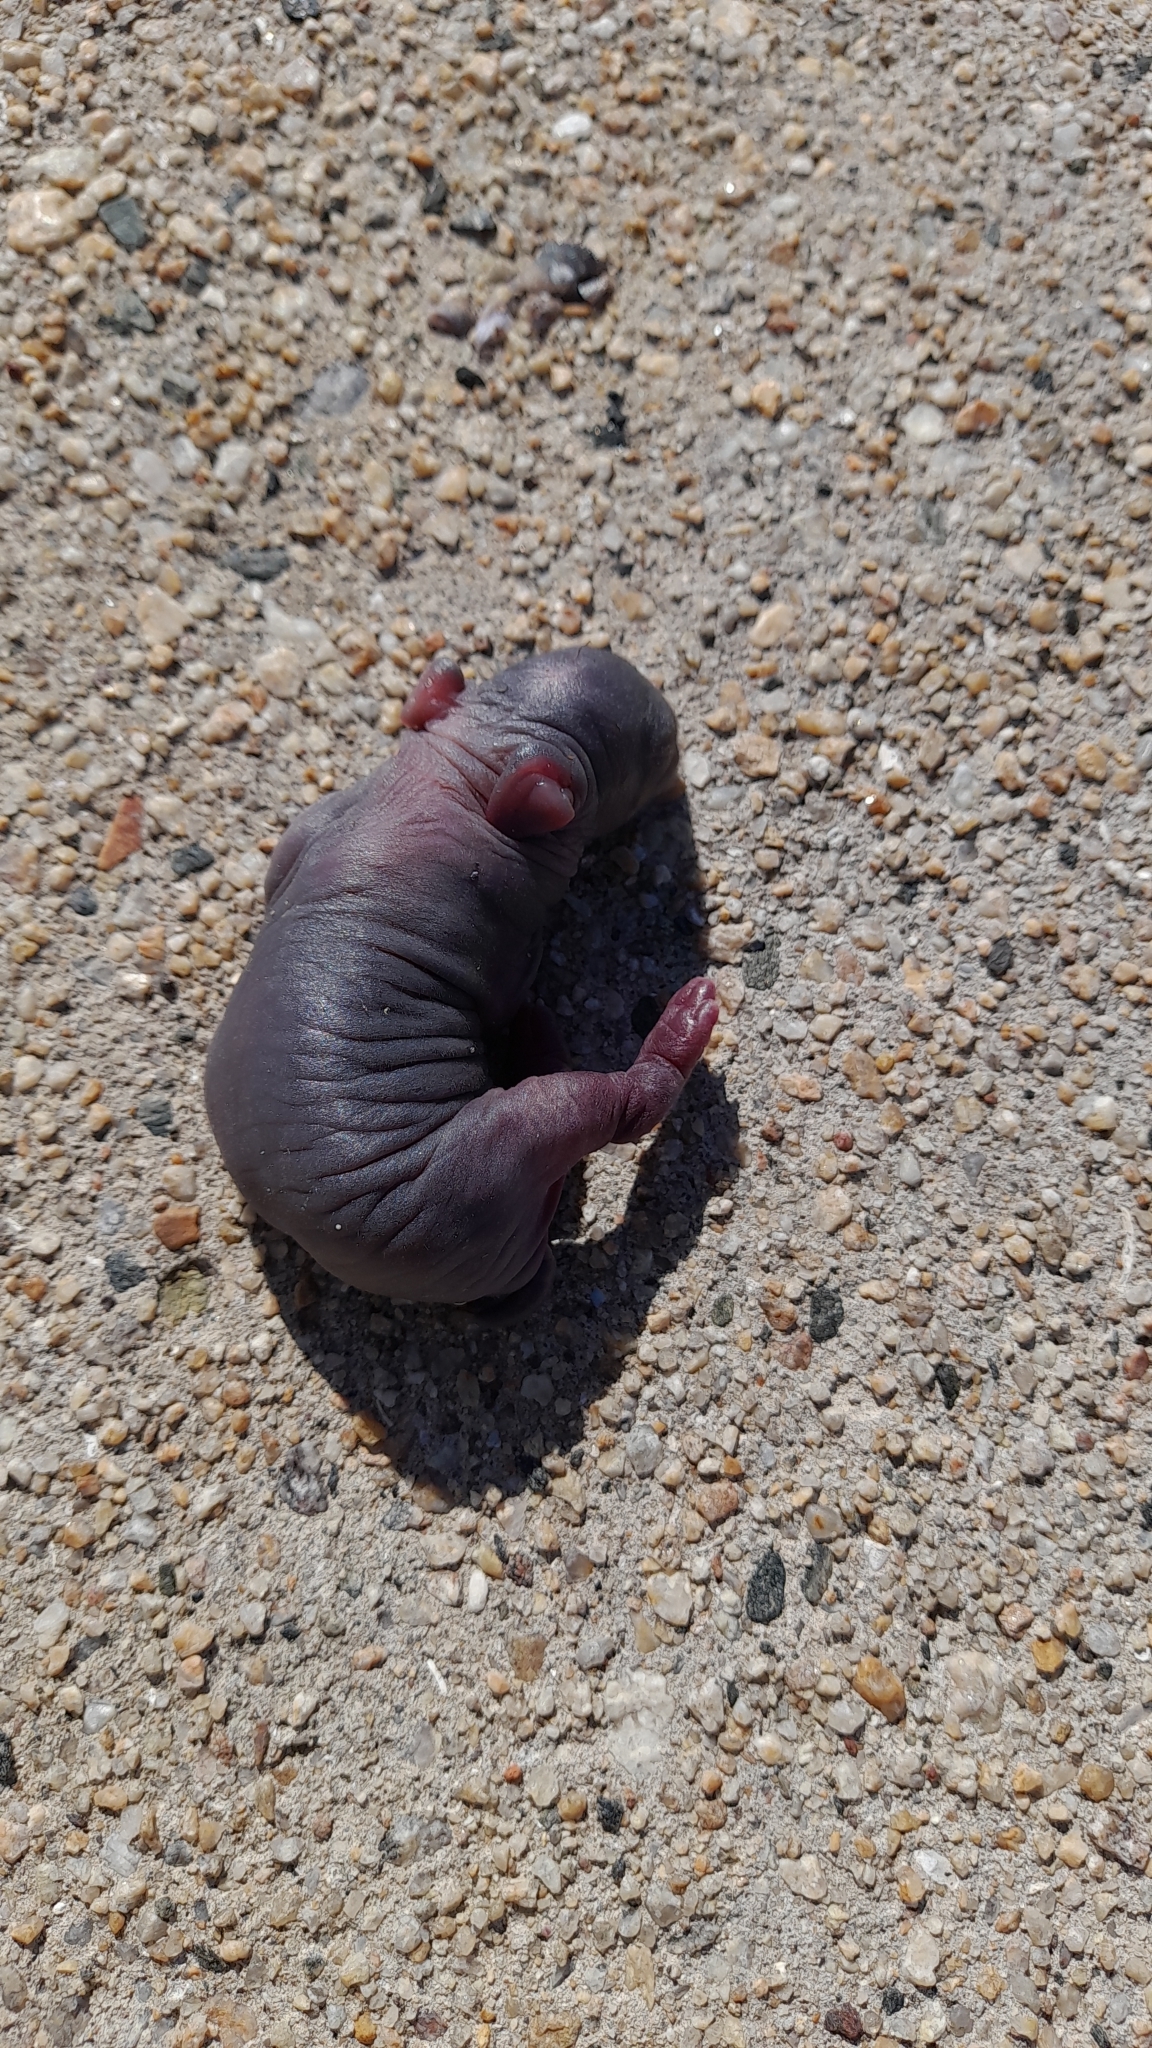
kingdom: Animalia
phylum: Chordata
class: Mammalia
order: Lagomorpha
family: Leporidae
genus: Oryctolagus
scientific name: Oryctolagus cuniculus
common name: European rabbit
